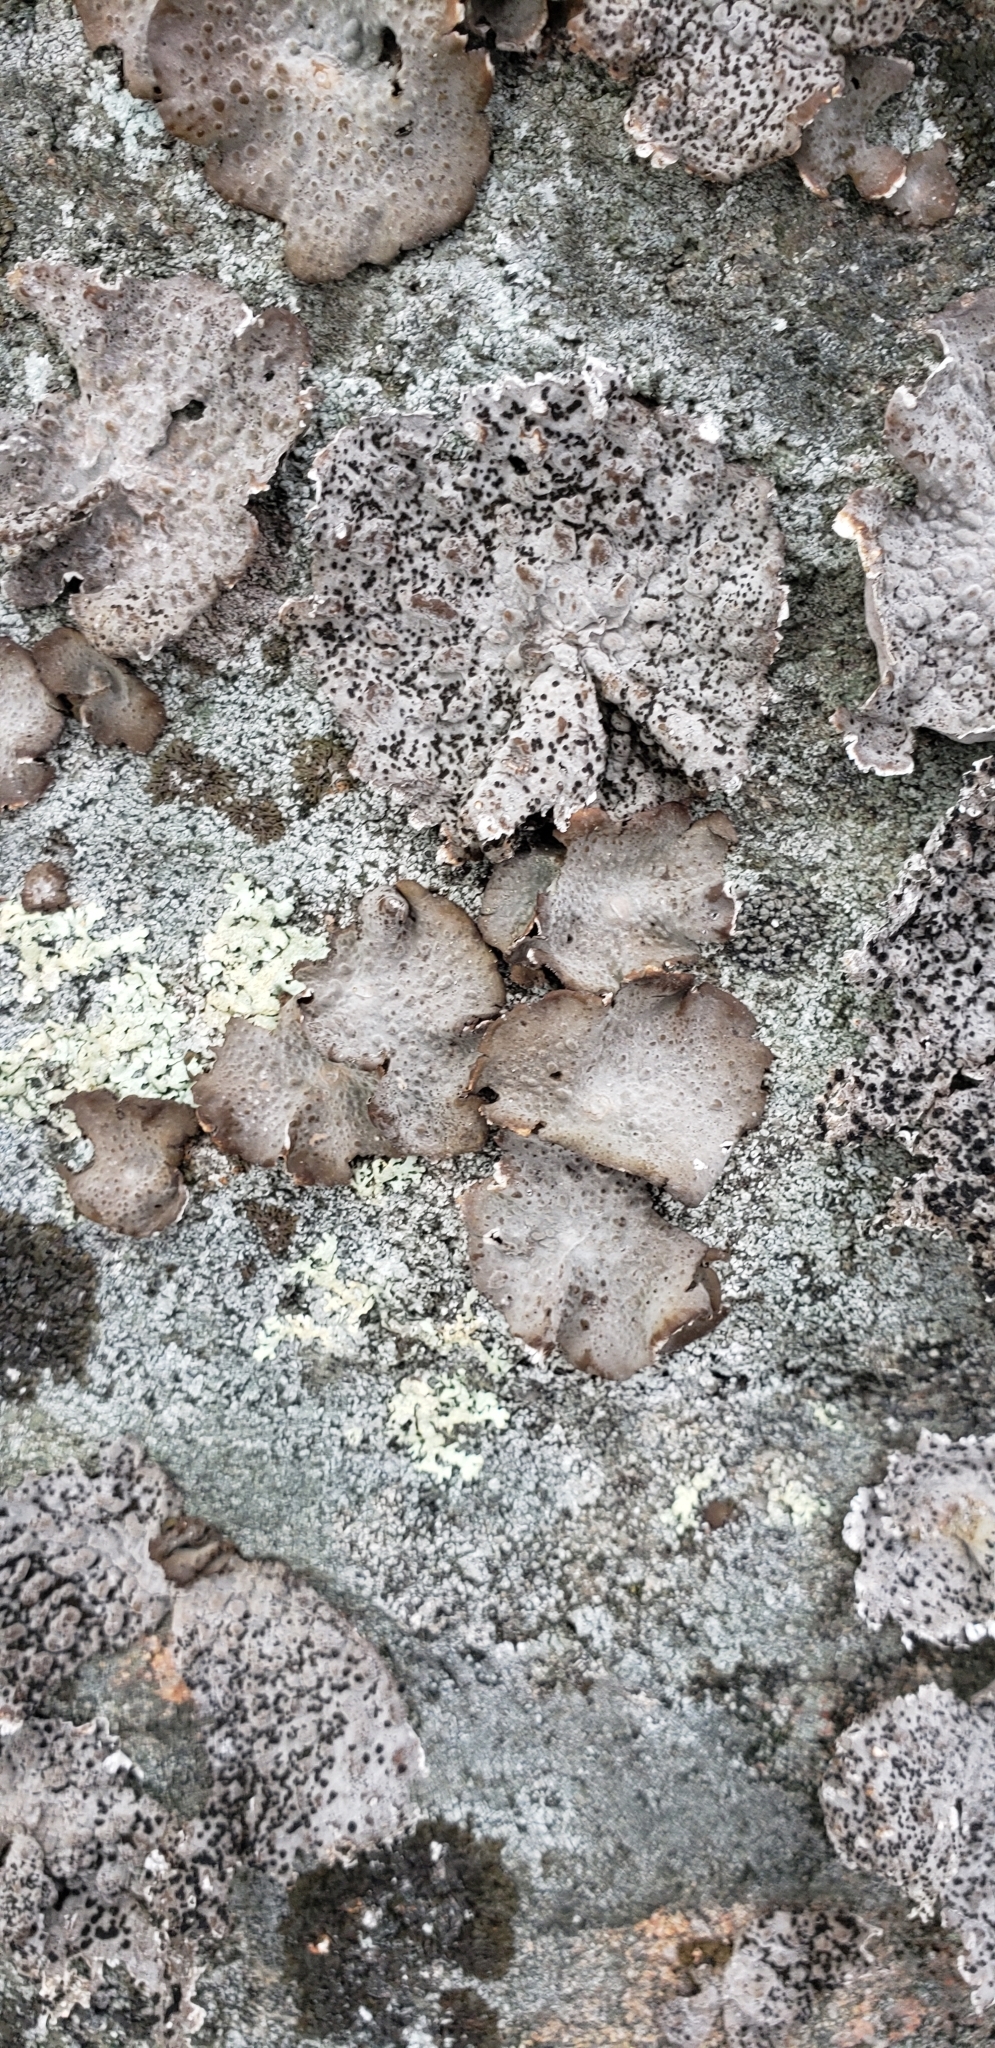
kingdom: Fungi
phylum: Ascomycota
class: Lecanoromycetes
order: Umbilicariales
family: Umbilicariaceae
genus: Lasallia
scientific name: Lasallia papulosa
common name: Common toadskin lichen
